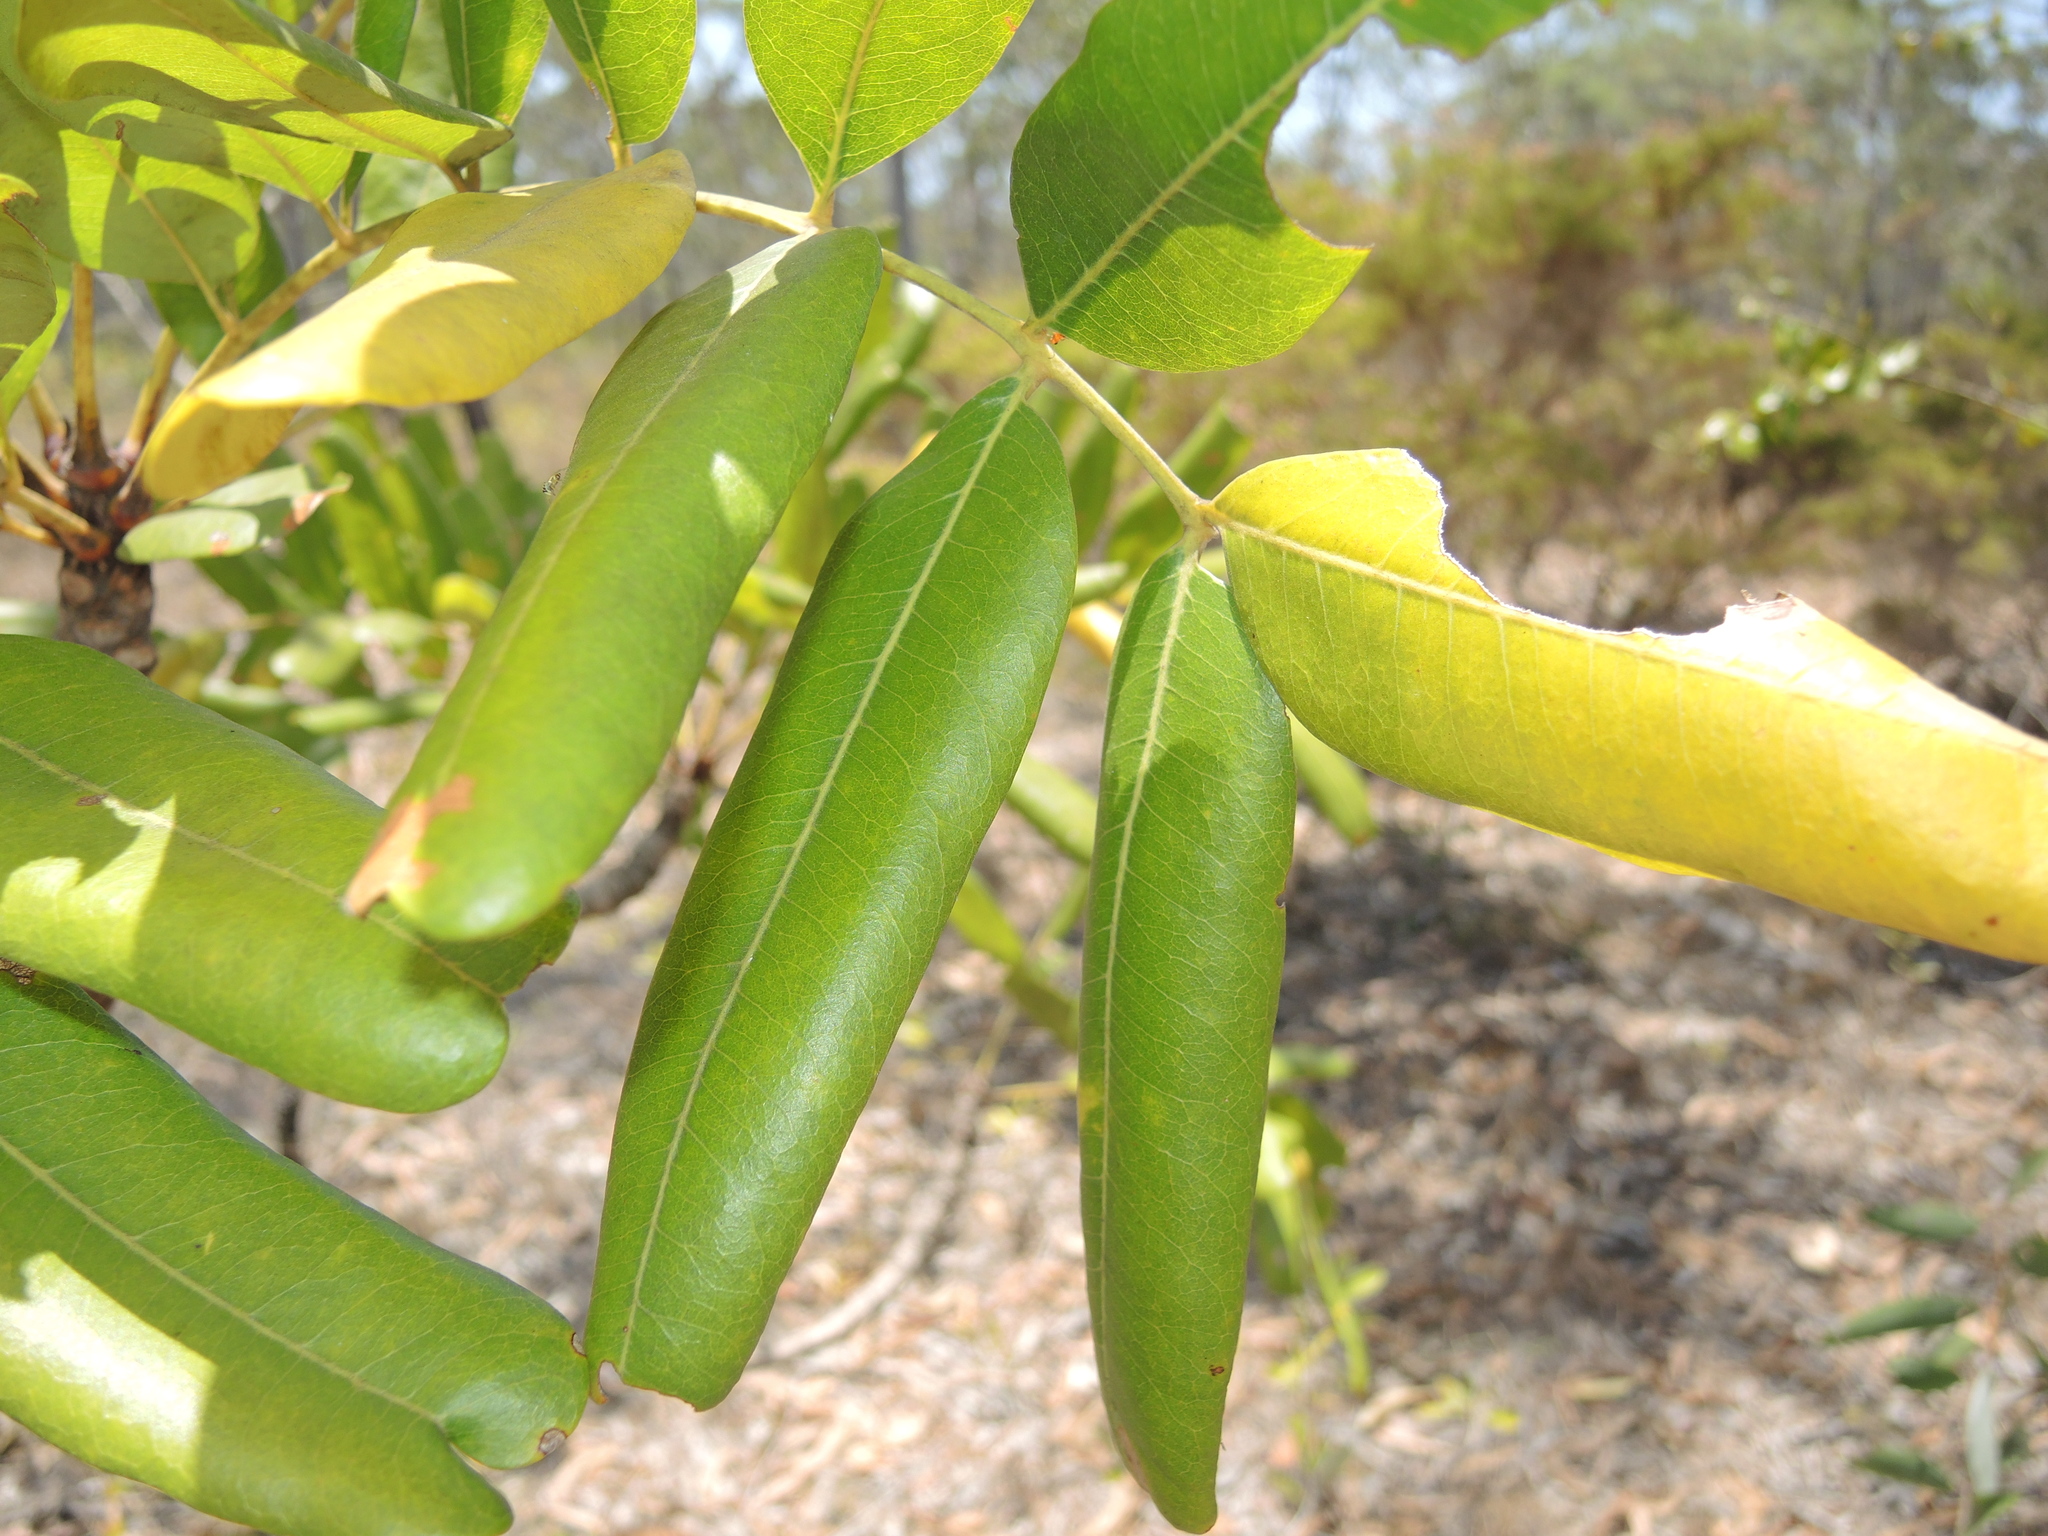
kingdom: Plantae
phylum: Tracheophyta
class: Magnoliopsida
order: Sapindales
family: Meliaceae
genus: Owenia
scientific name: Owenia vernicosa
